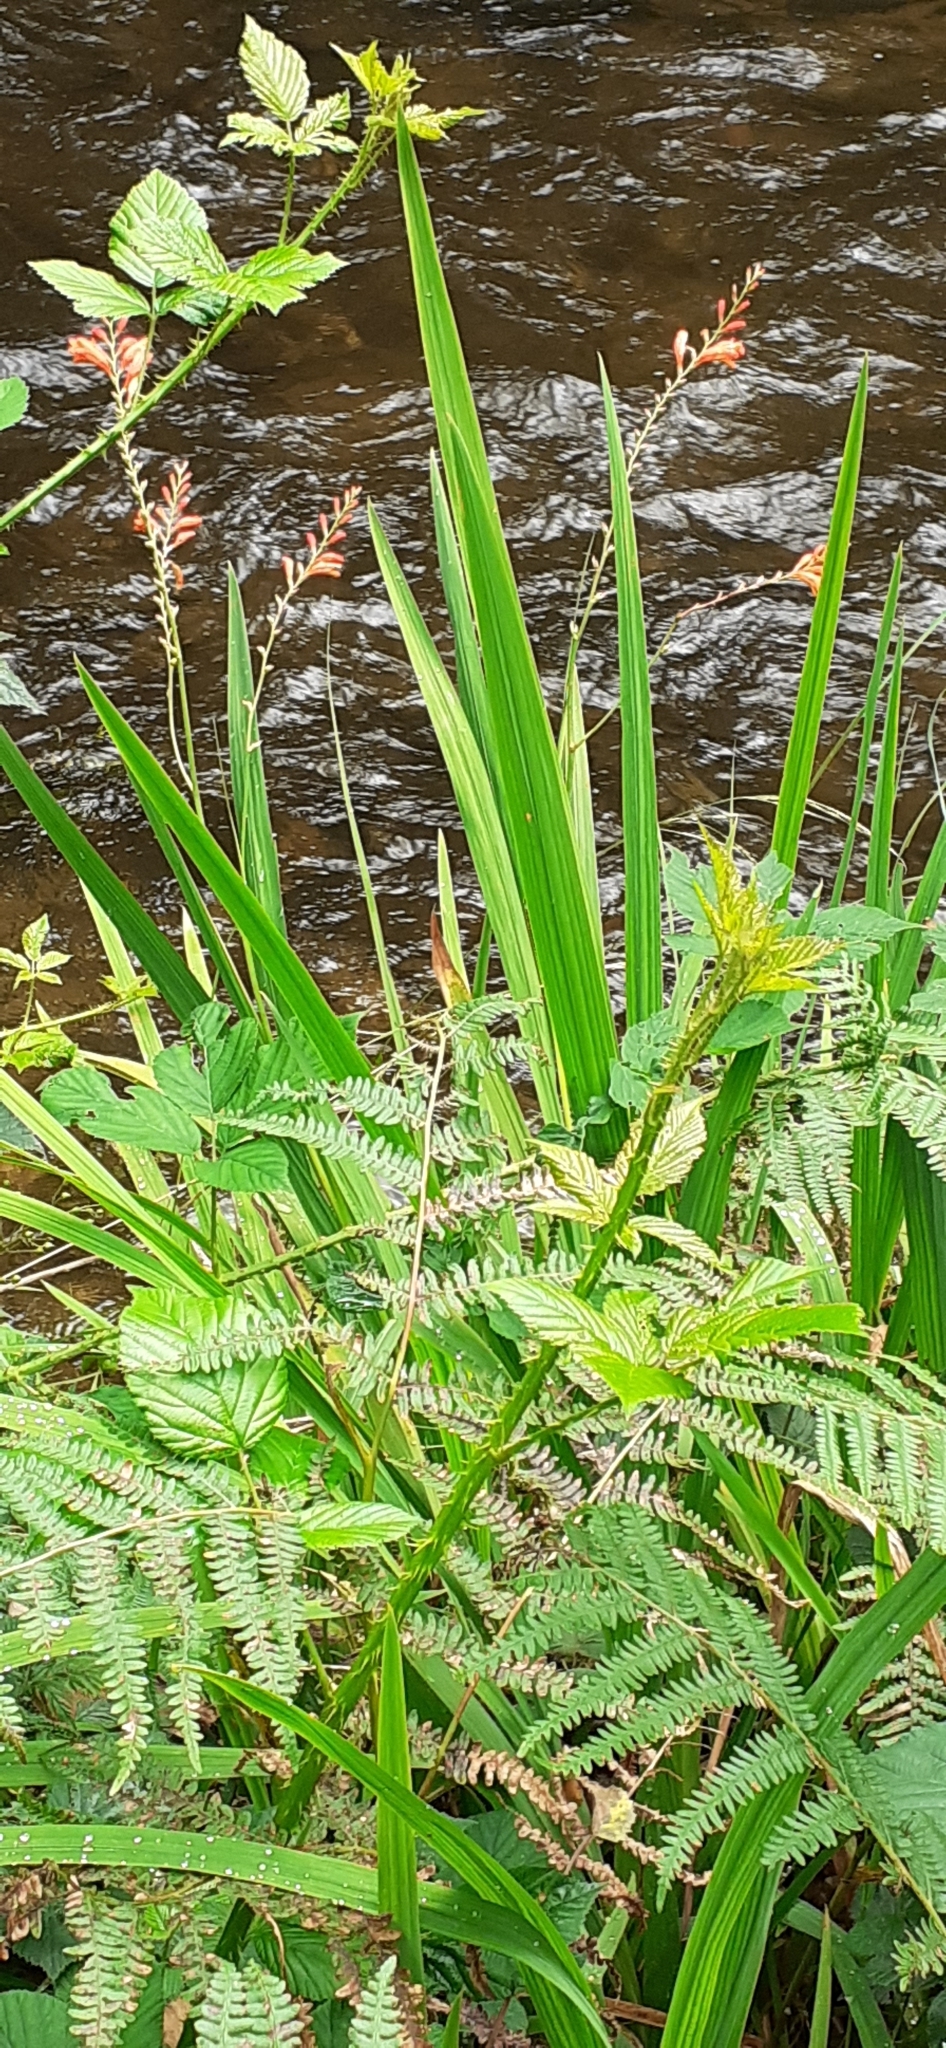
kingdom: Plantae
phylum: Tracheophyta
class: Liliopsida
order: Asparagales
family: Iridaceae
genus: Crocosmia
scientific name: Crocosmia crocosmiiflora
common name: Montbretia
